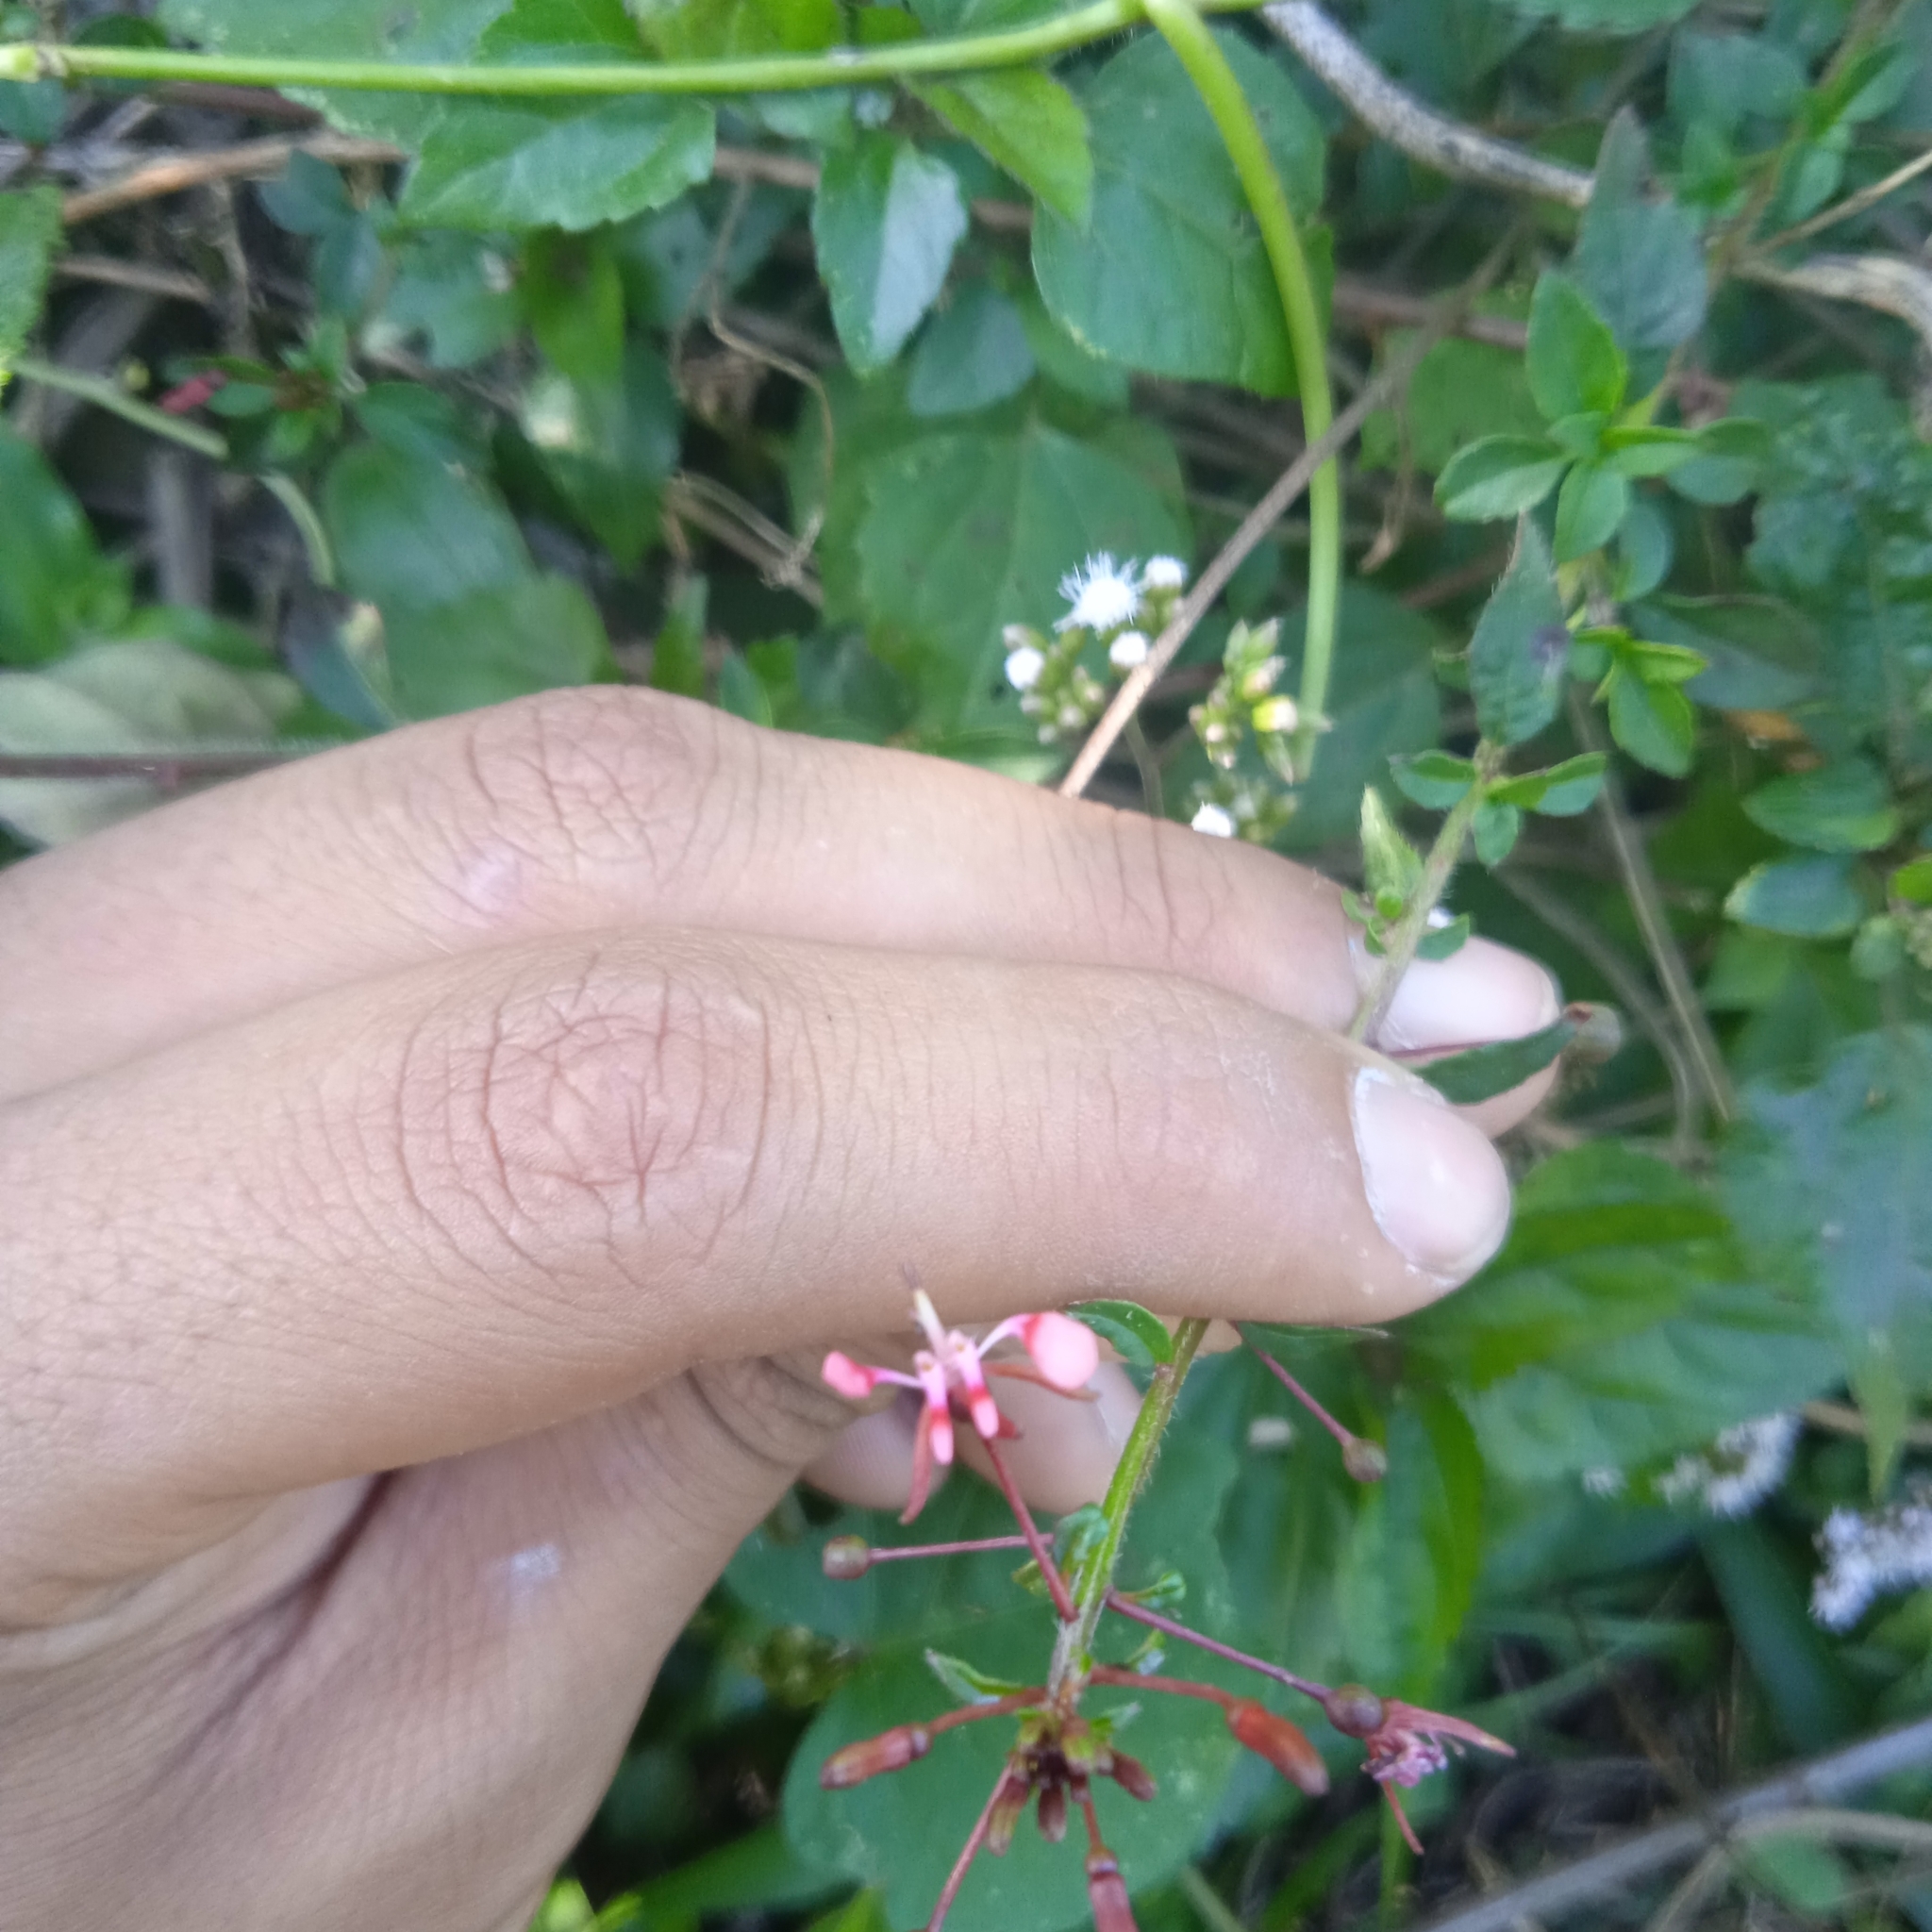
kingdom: Plantae
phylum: Tracheophyta
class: Magnoliopsida
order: Myrtales
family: Onagraceae
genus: Lopezia
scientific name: Lopezia racemosa
